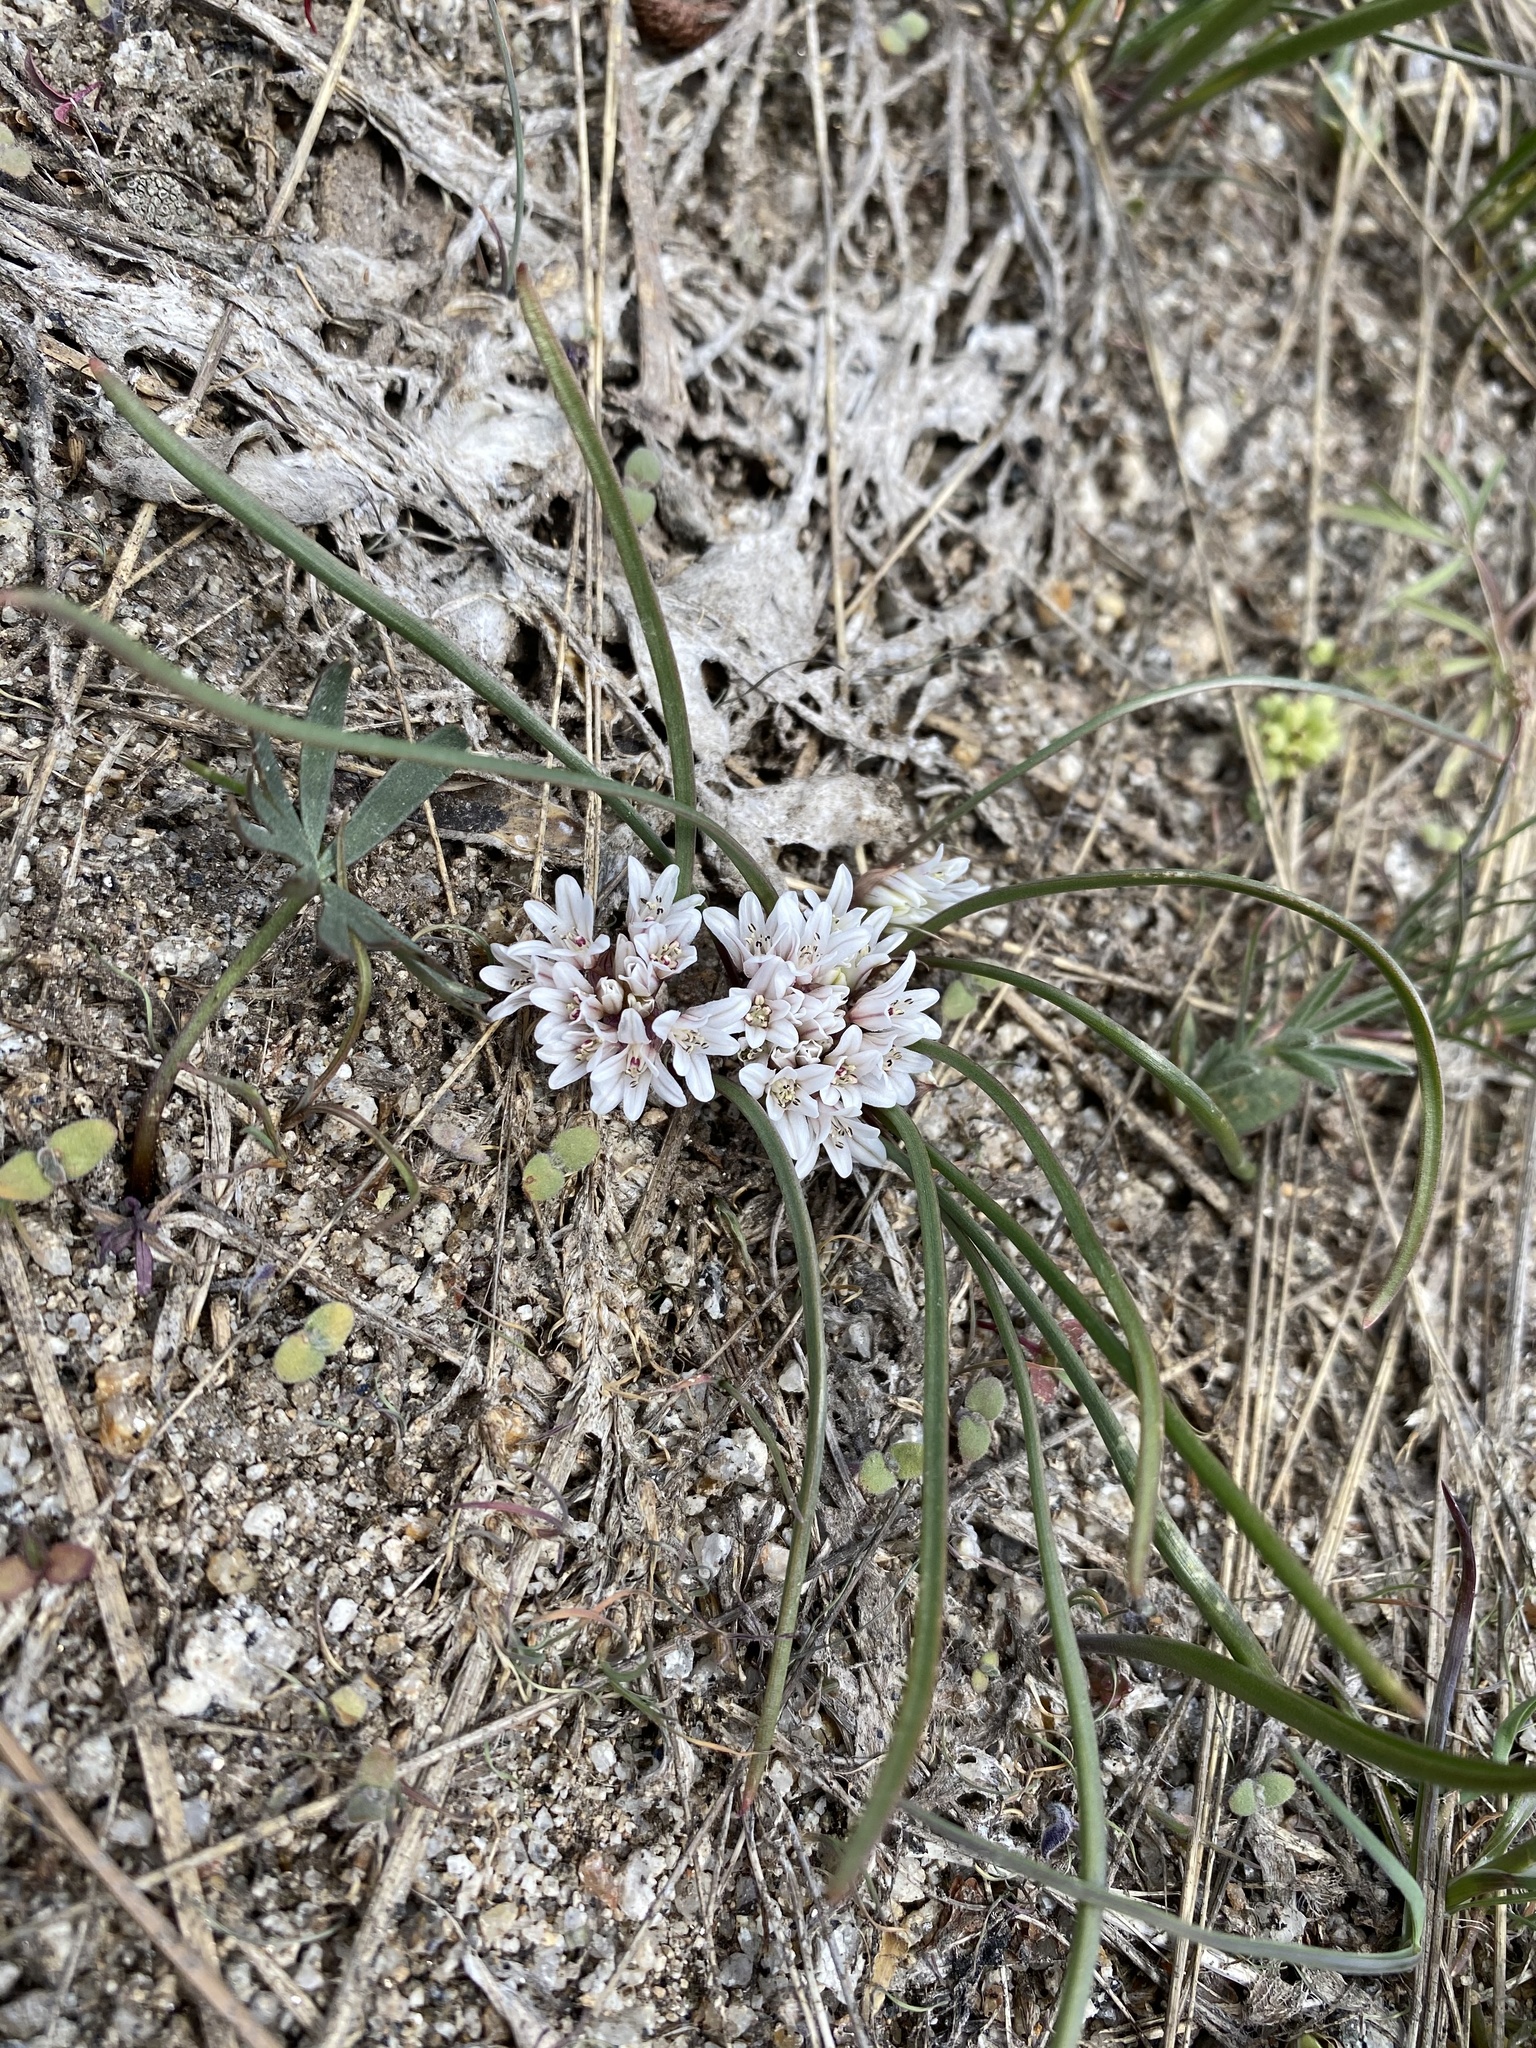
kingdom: Plantae
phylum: Tracheophyta
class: Liliopsida
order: Asparagales
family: Amaryllidaceae
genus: Allium
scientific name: Allium simillimum
